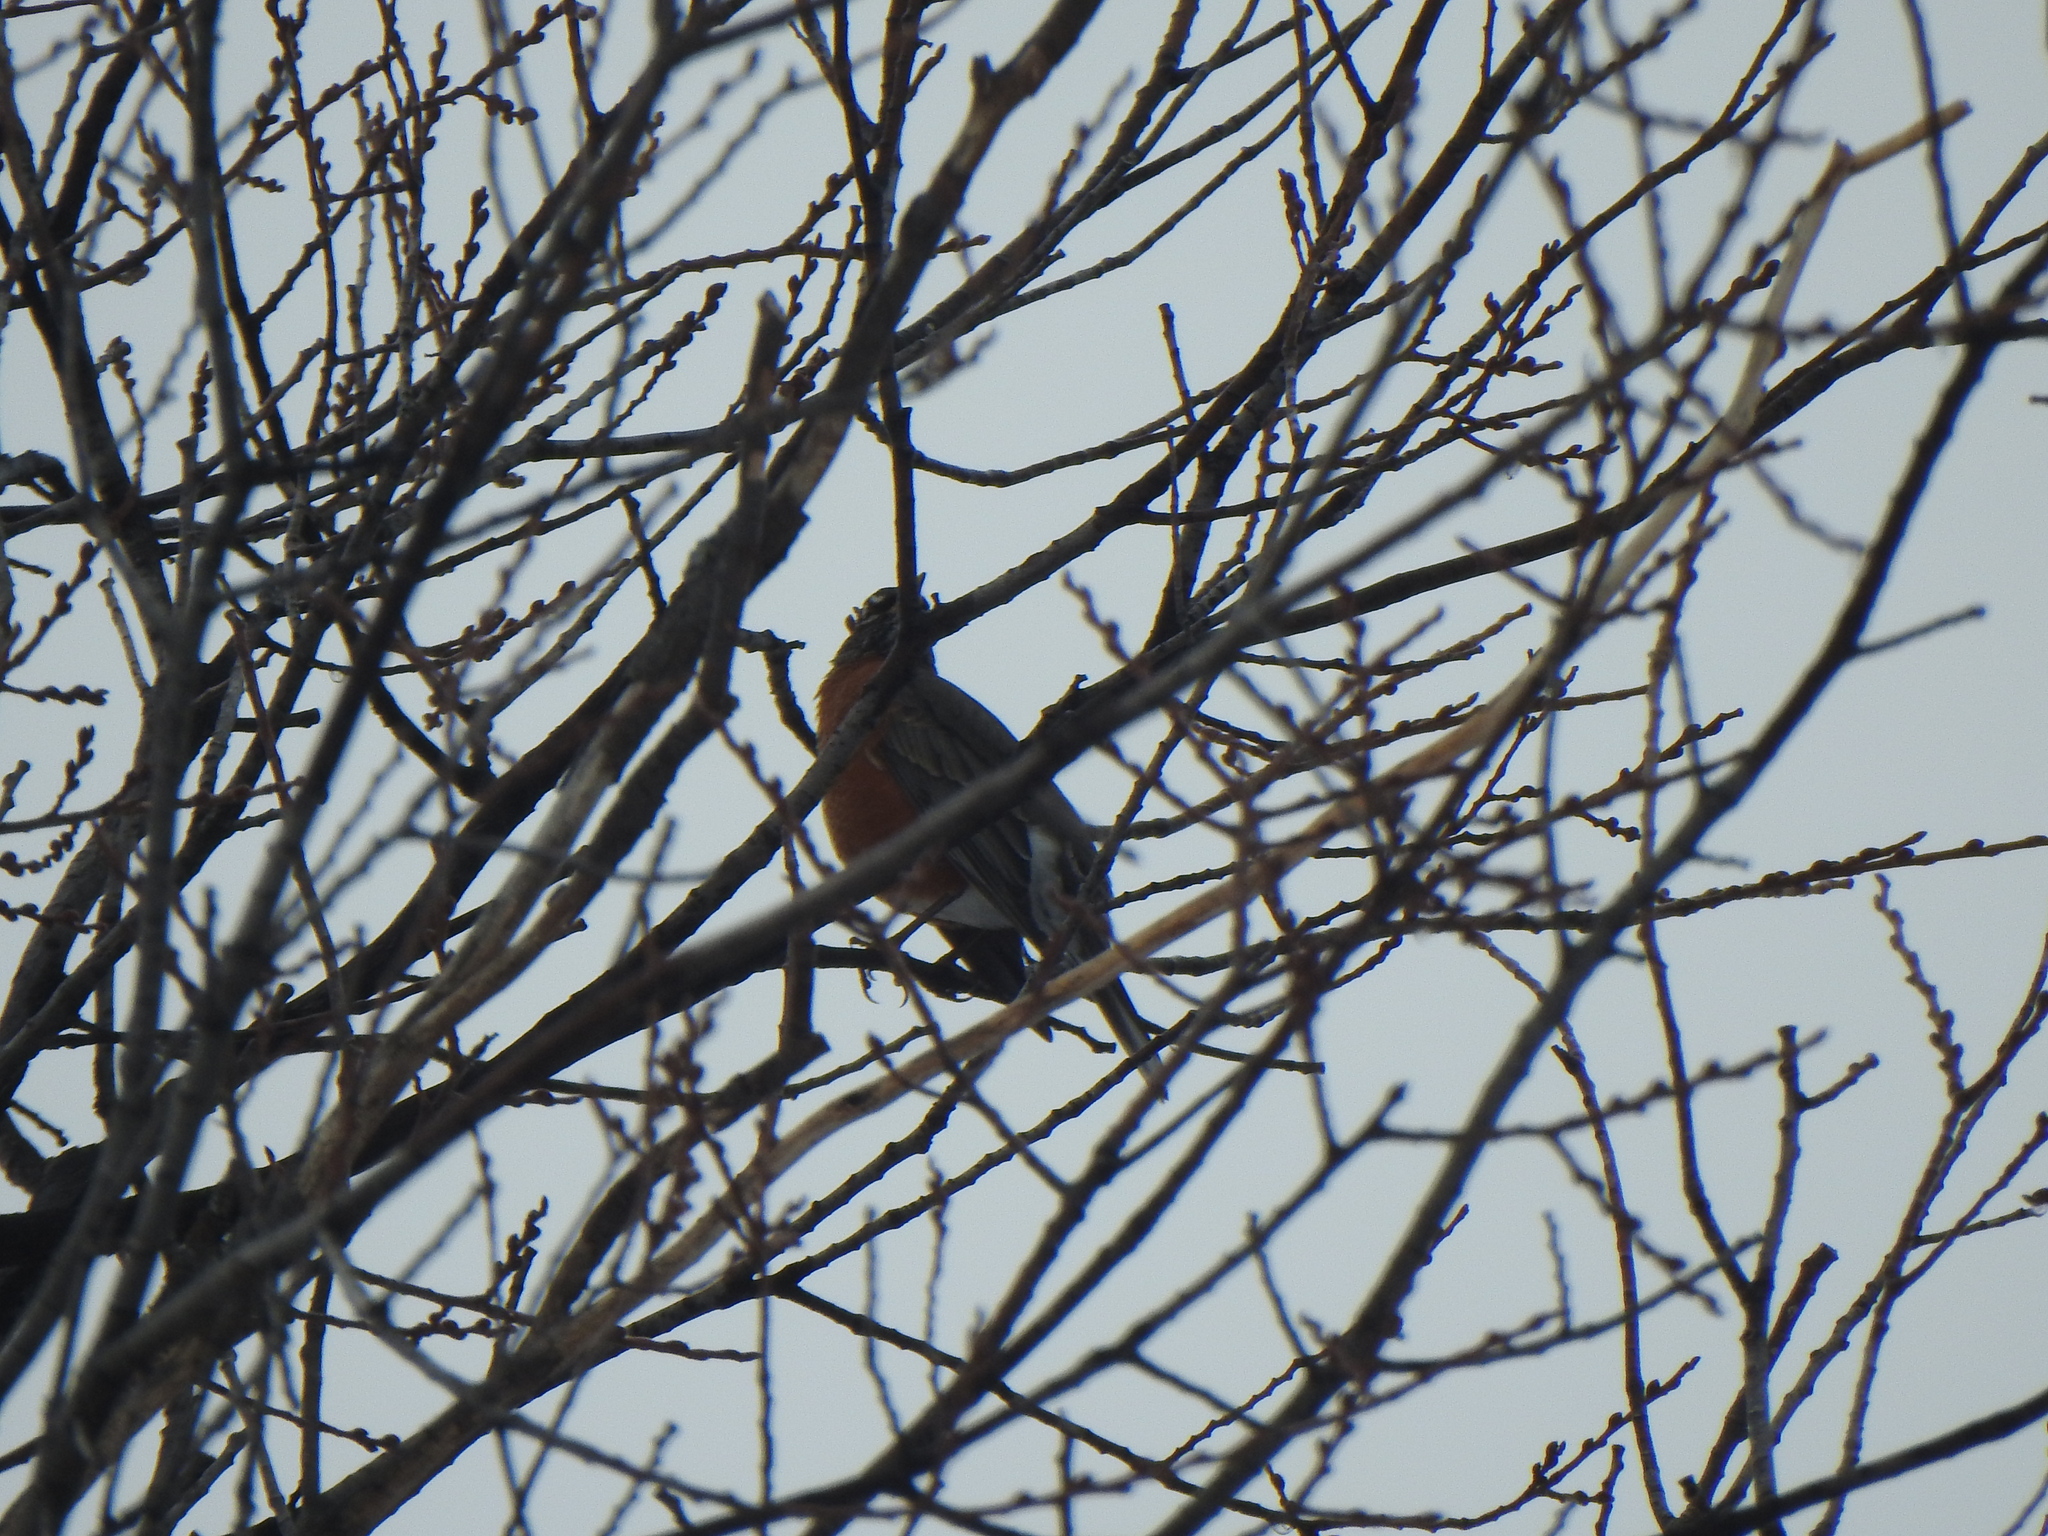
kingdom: Animalia
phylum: Chordata
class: Aves
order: Passeriformes
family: Turdidae
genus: Turdus
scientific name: Turdus migratorius
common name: American robin
